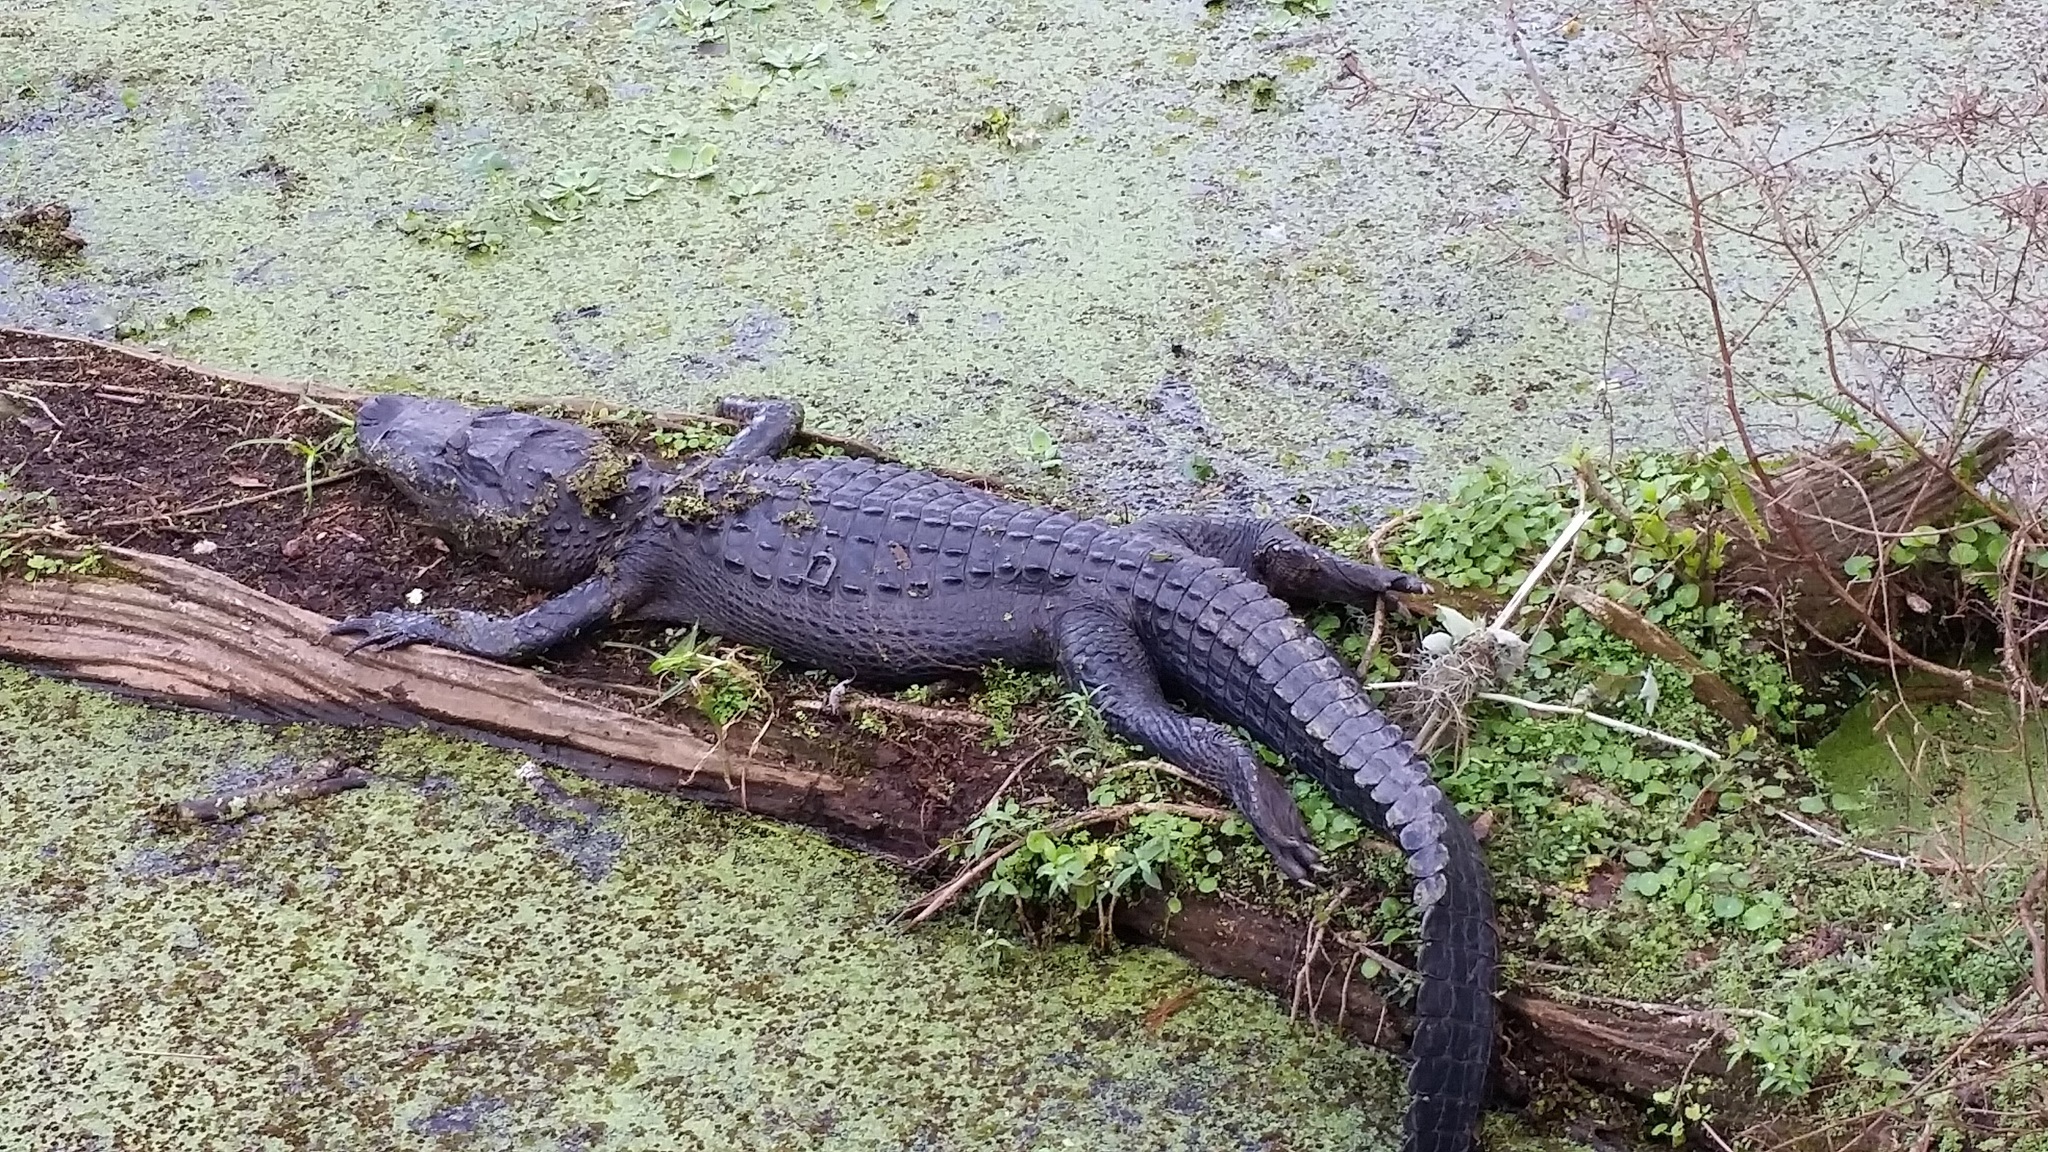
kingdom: Animalia
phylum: Chordata
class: Crocodylia
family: Alligatoridae
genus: Alligator
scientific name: Alligator mississippiensis
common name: American alligator
